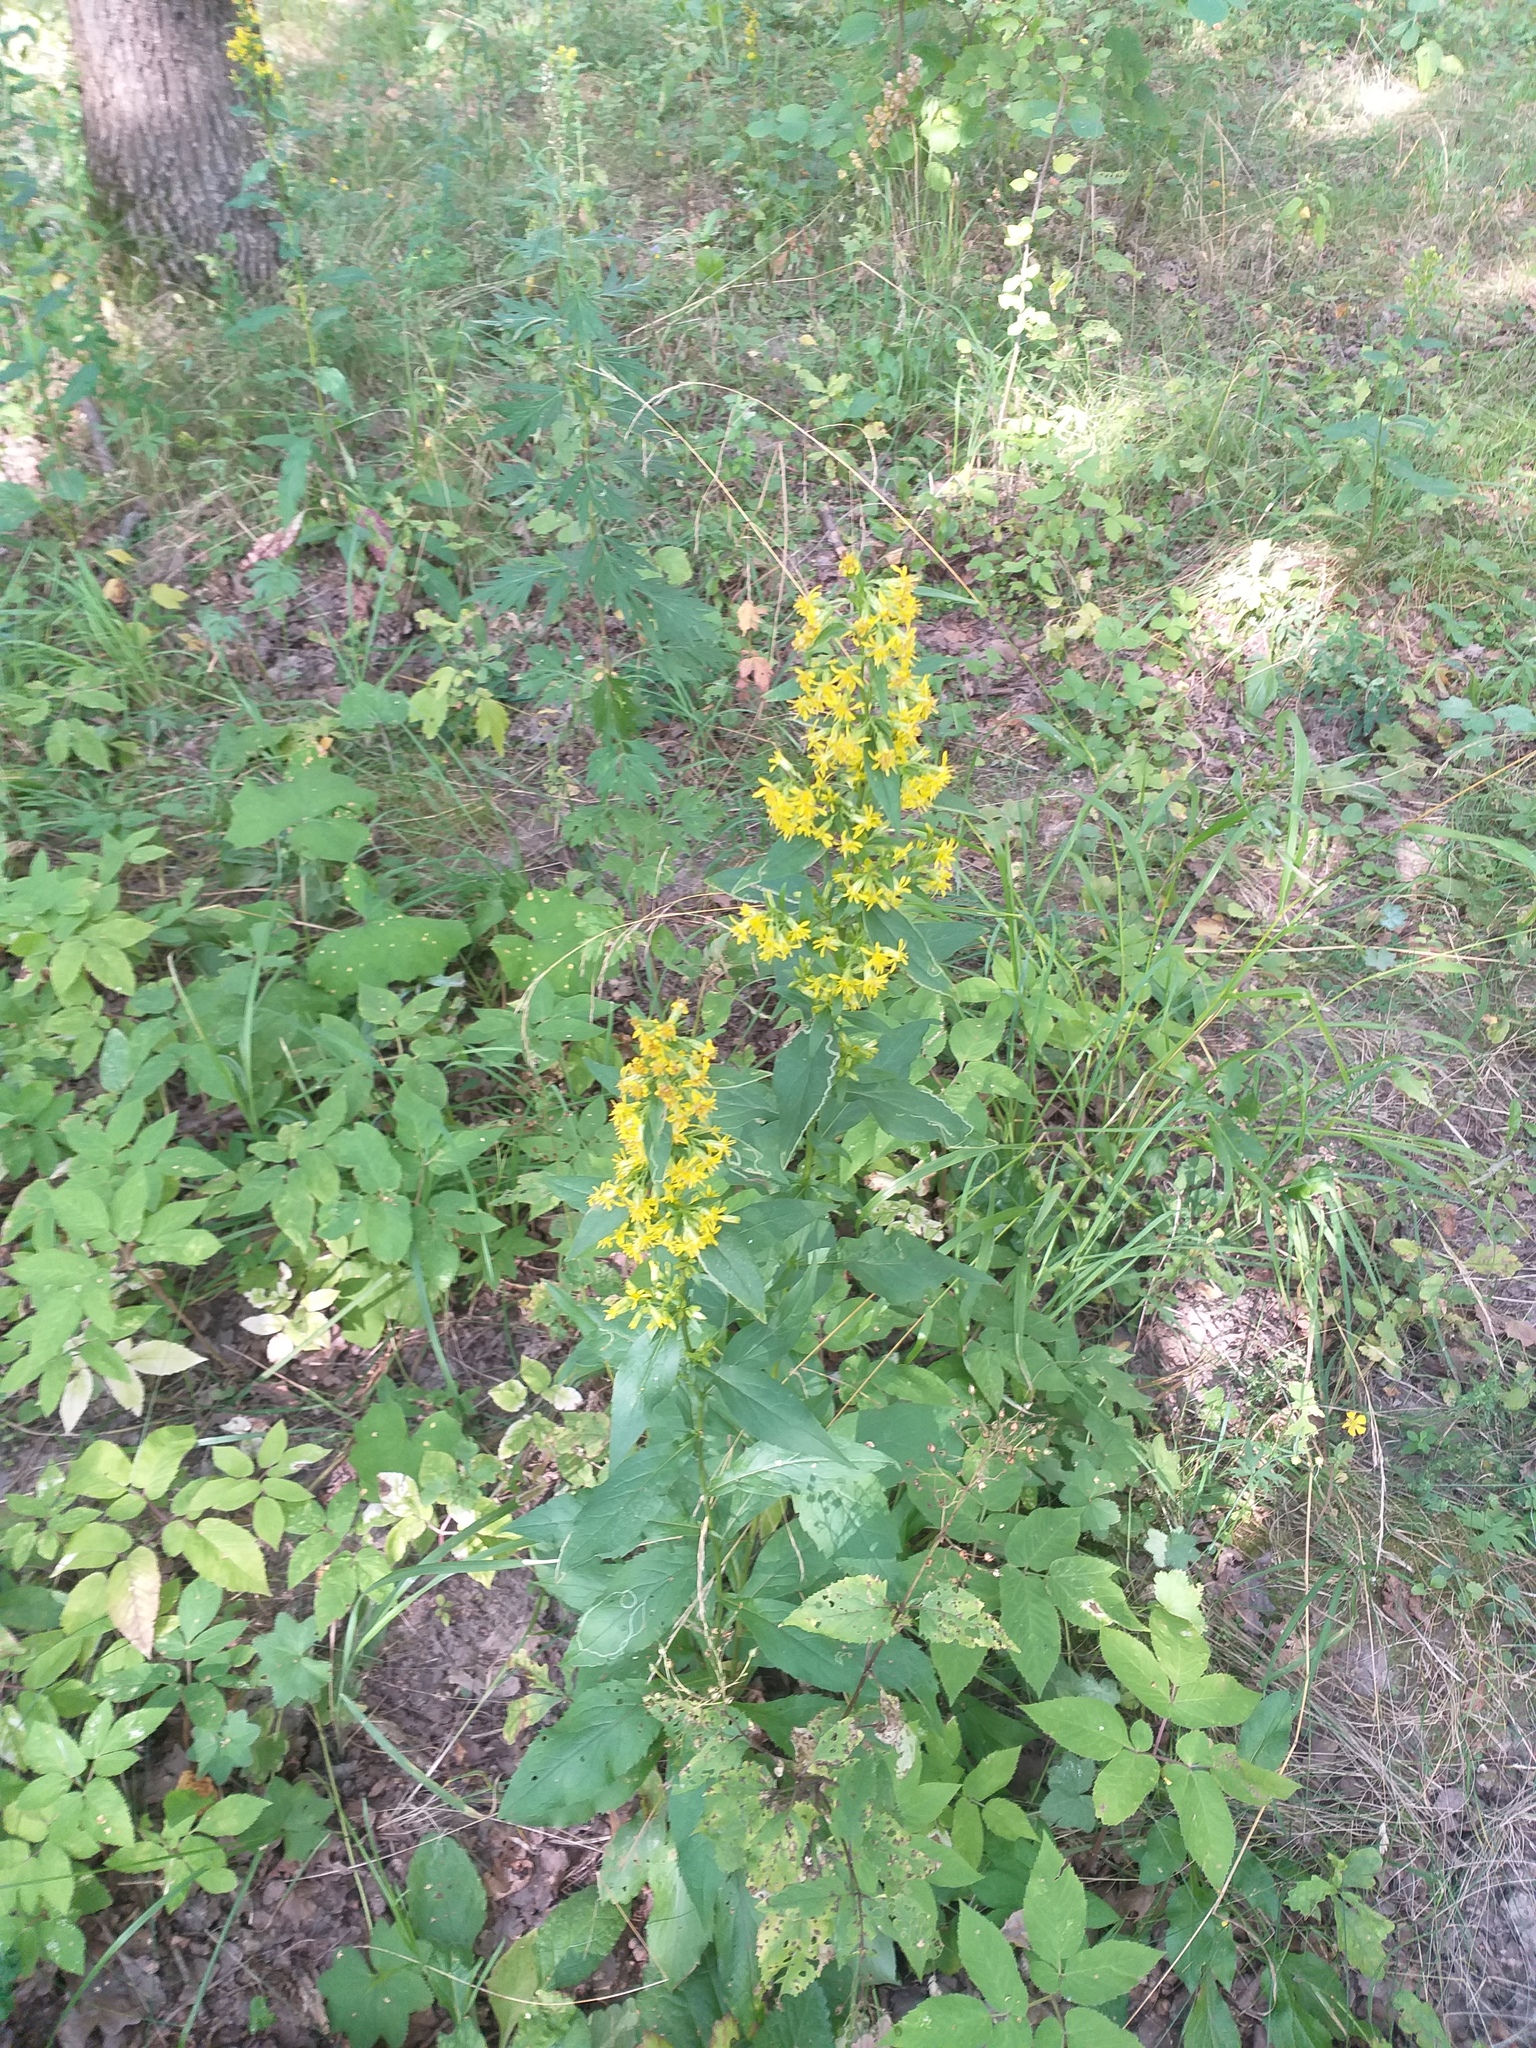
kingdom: Plantae
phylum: Tracheophyta
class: Magnoliopsida
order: Asterales
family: Asteraceae
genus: Solidago
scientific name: Solidago virgaurea
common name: Goldenrod
